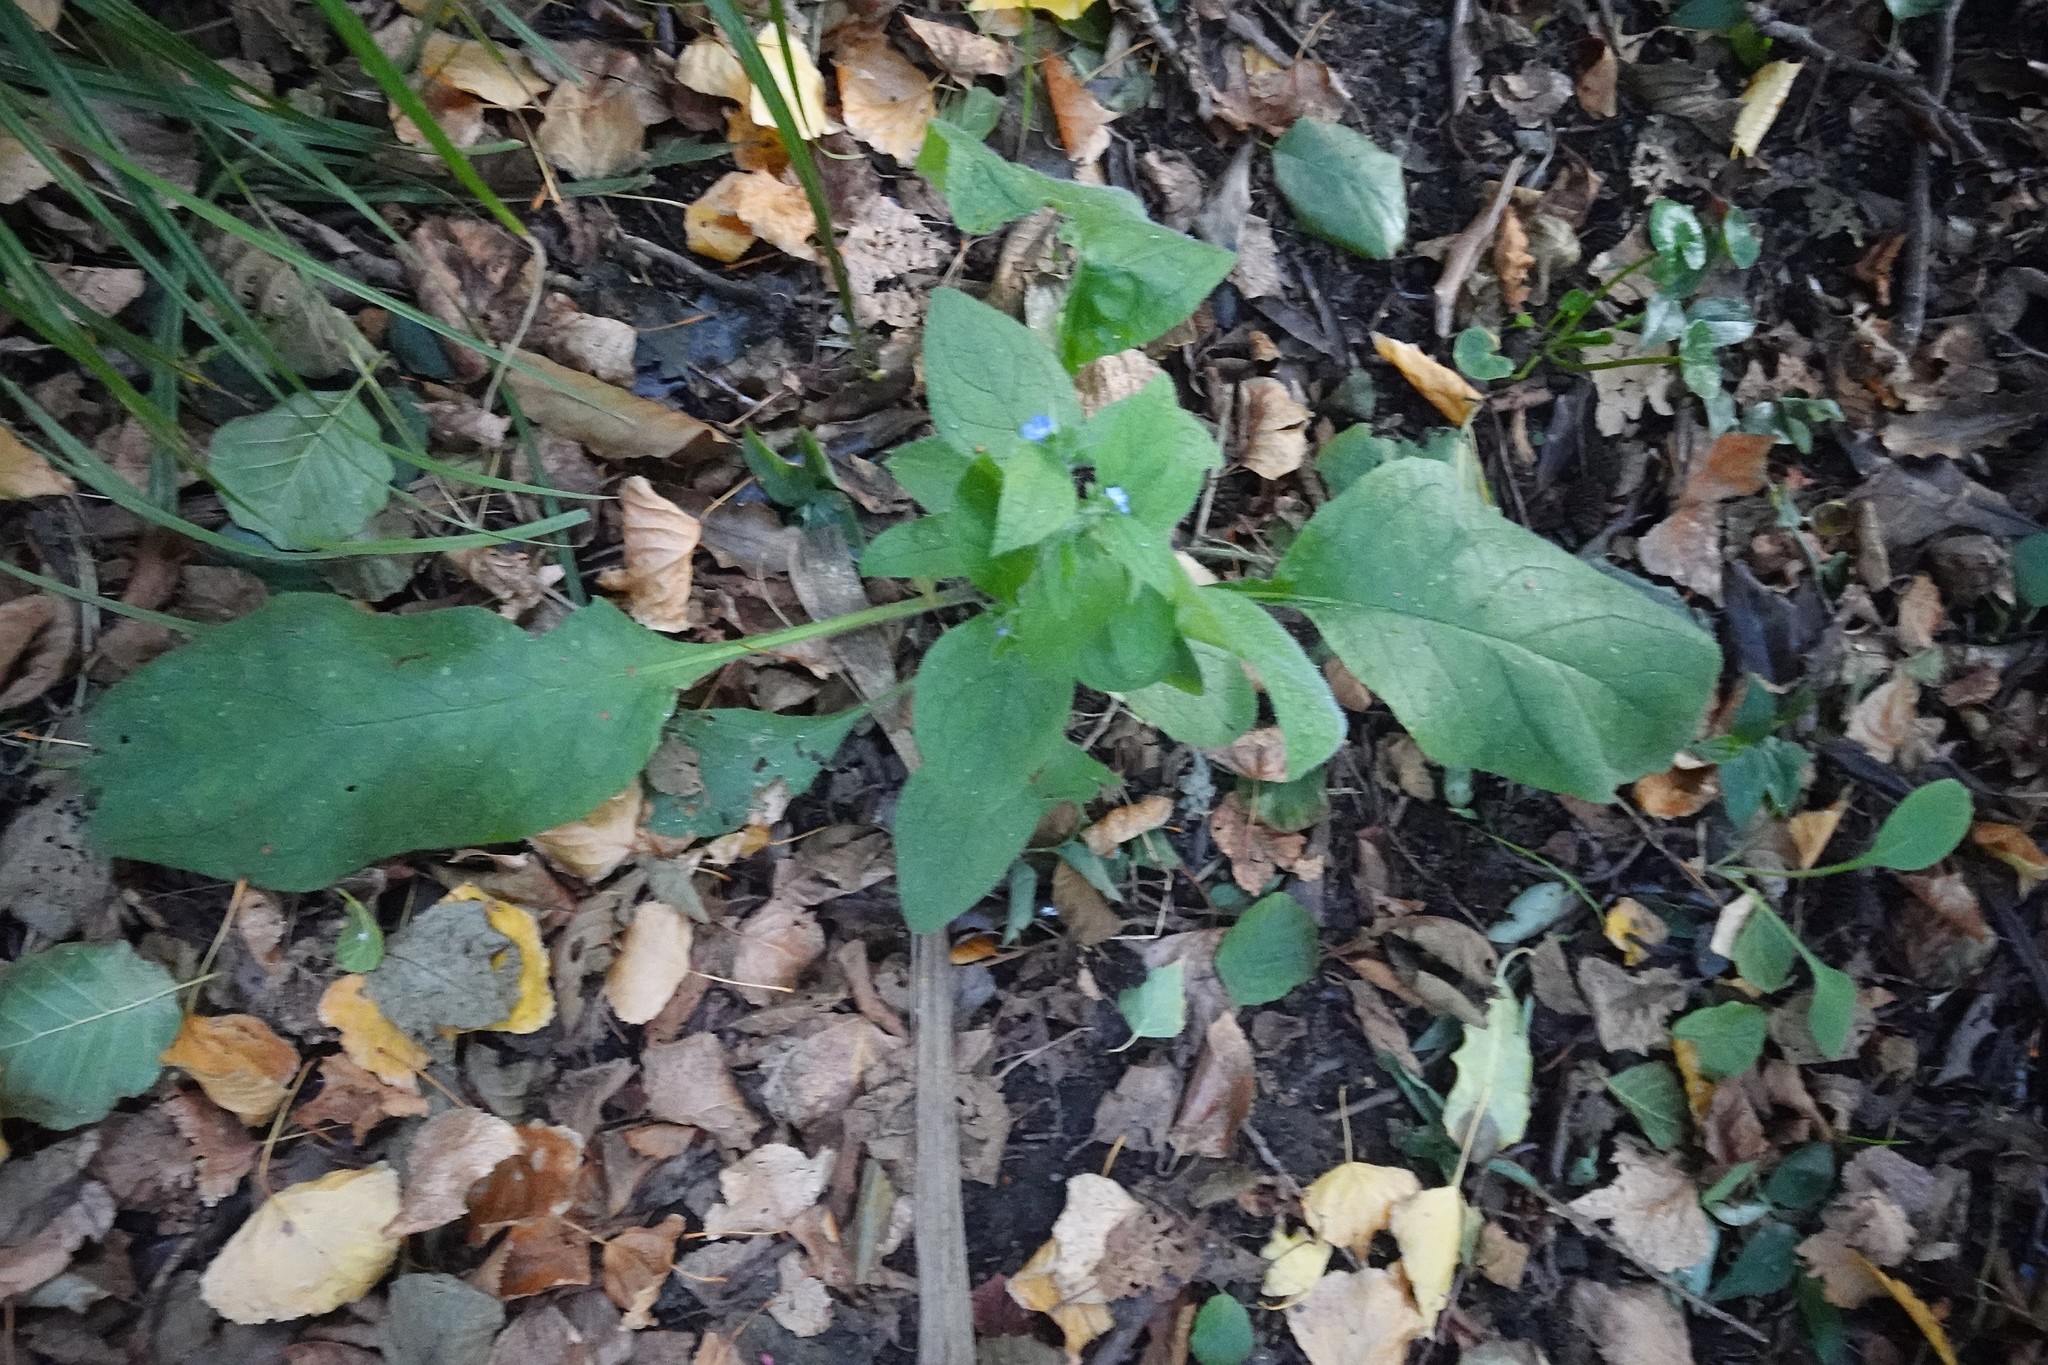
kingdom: Plantae
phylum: Tracheophyta
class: Magnoliopsida
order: Boraginales
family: Boraginaceae
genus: Pentaglottis
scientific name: Pentaglottis sempervirens
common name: Green alkanet
